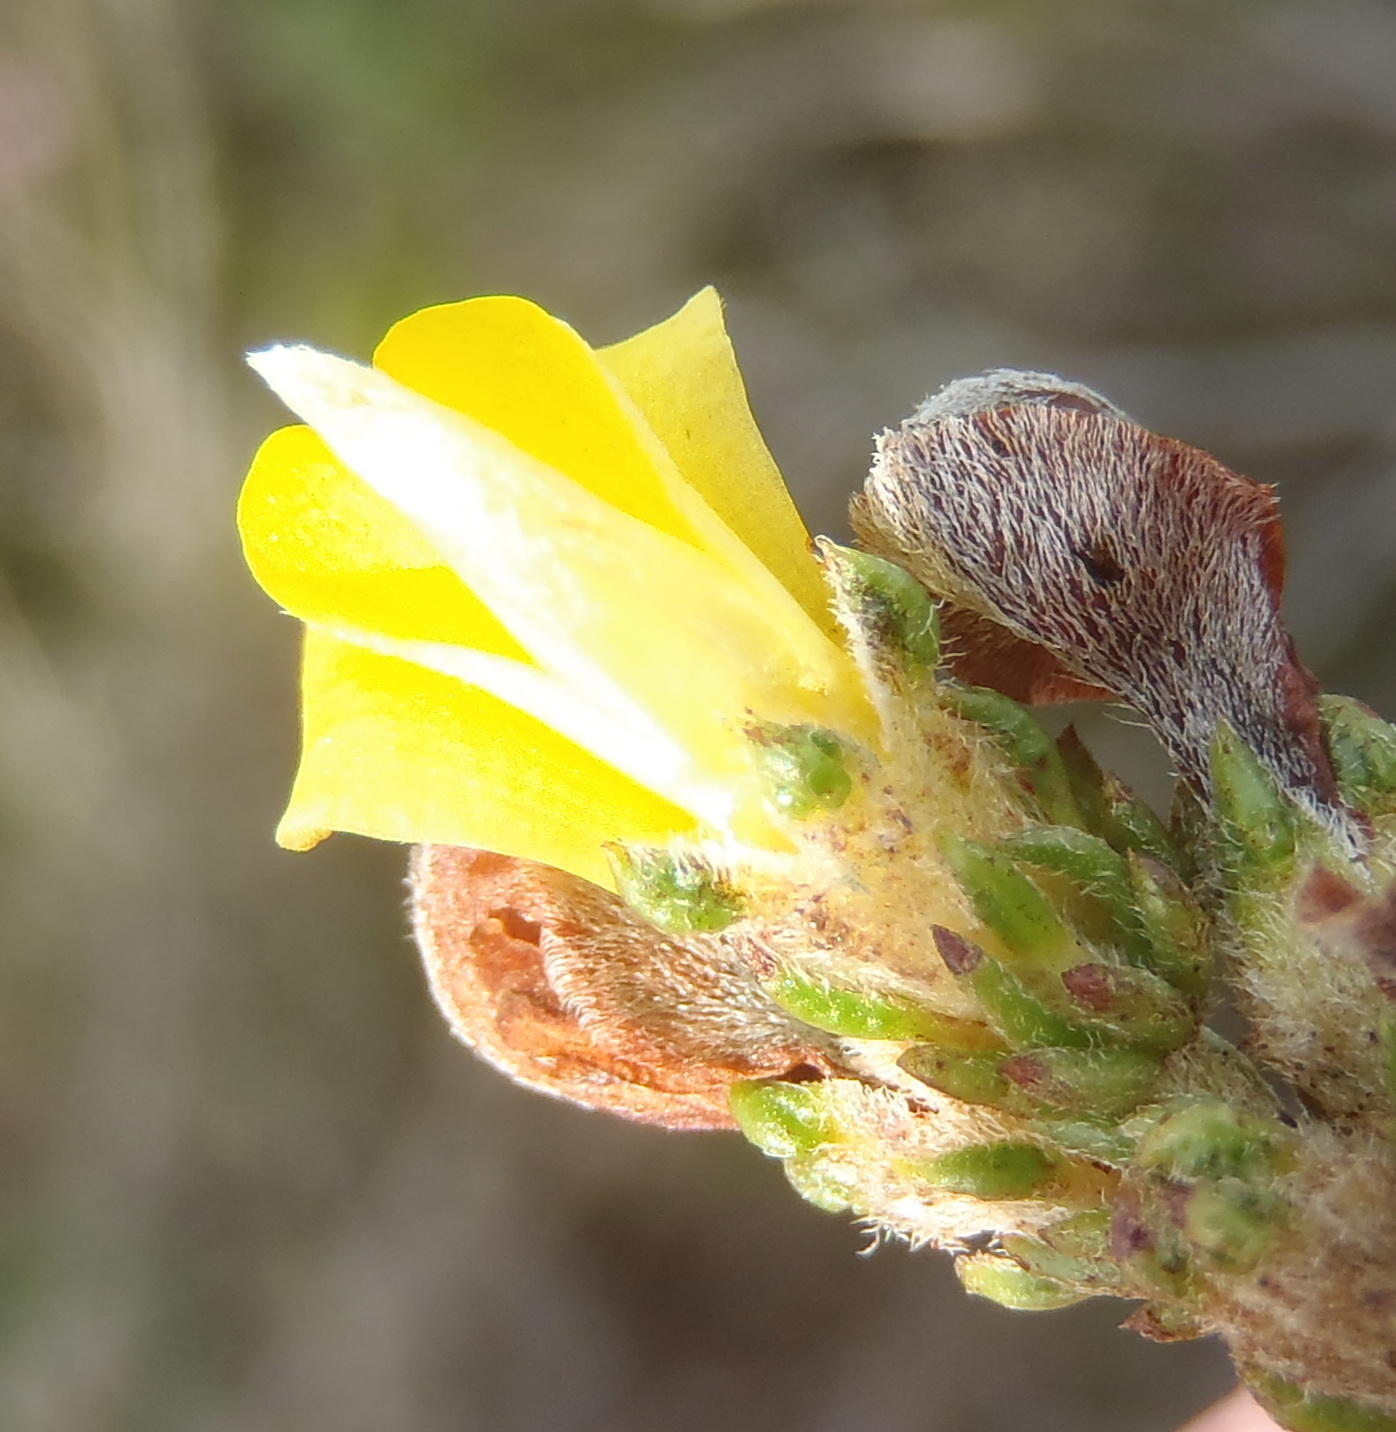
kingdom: Plantae
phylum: Tracheophyta
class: Magnoliopsida
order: Fabales
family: Fabaceae
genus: Aspalathus
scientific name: Aspalathus opaca
